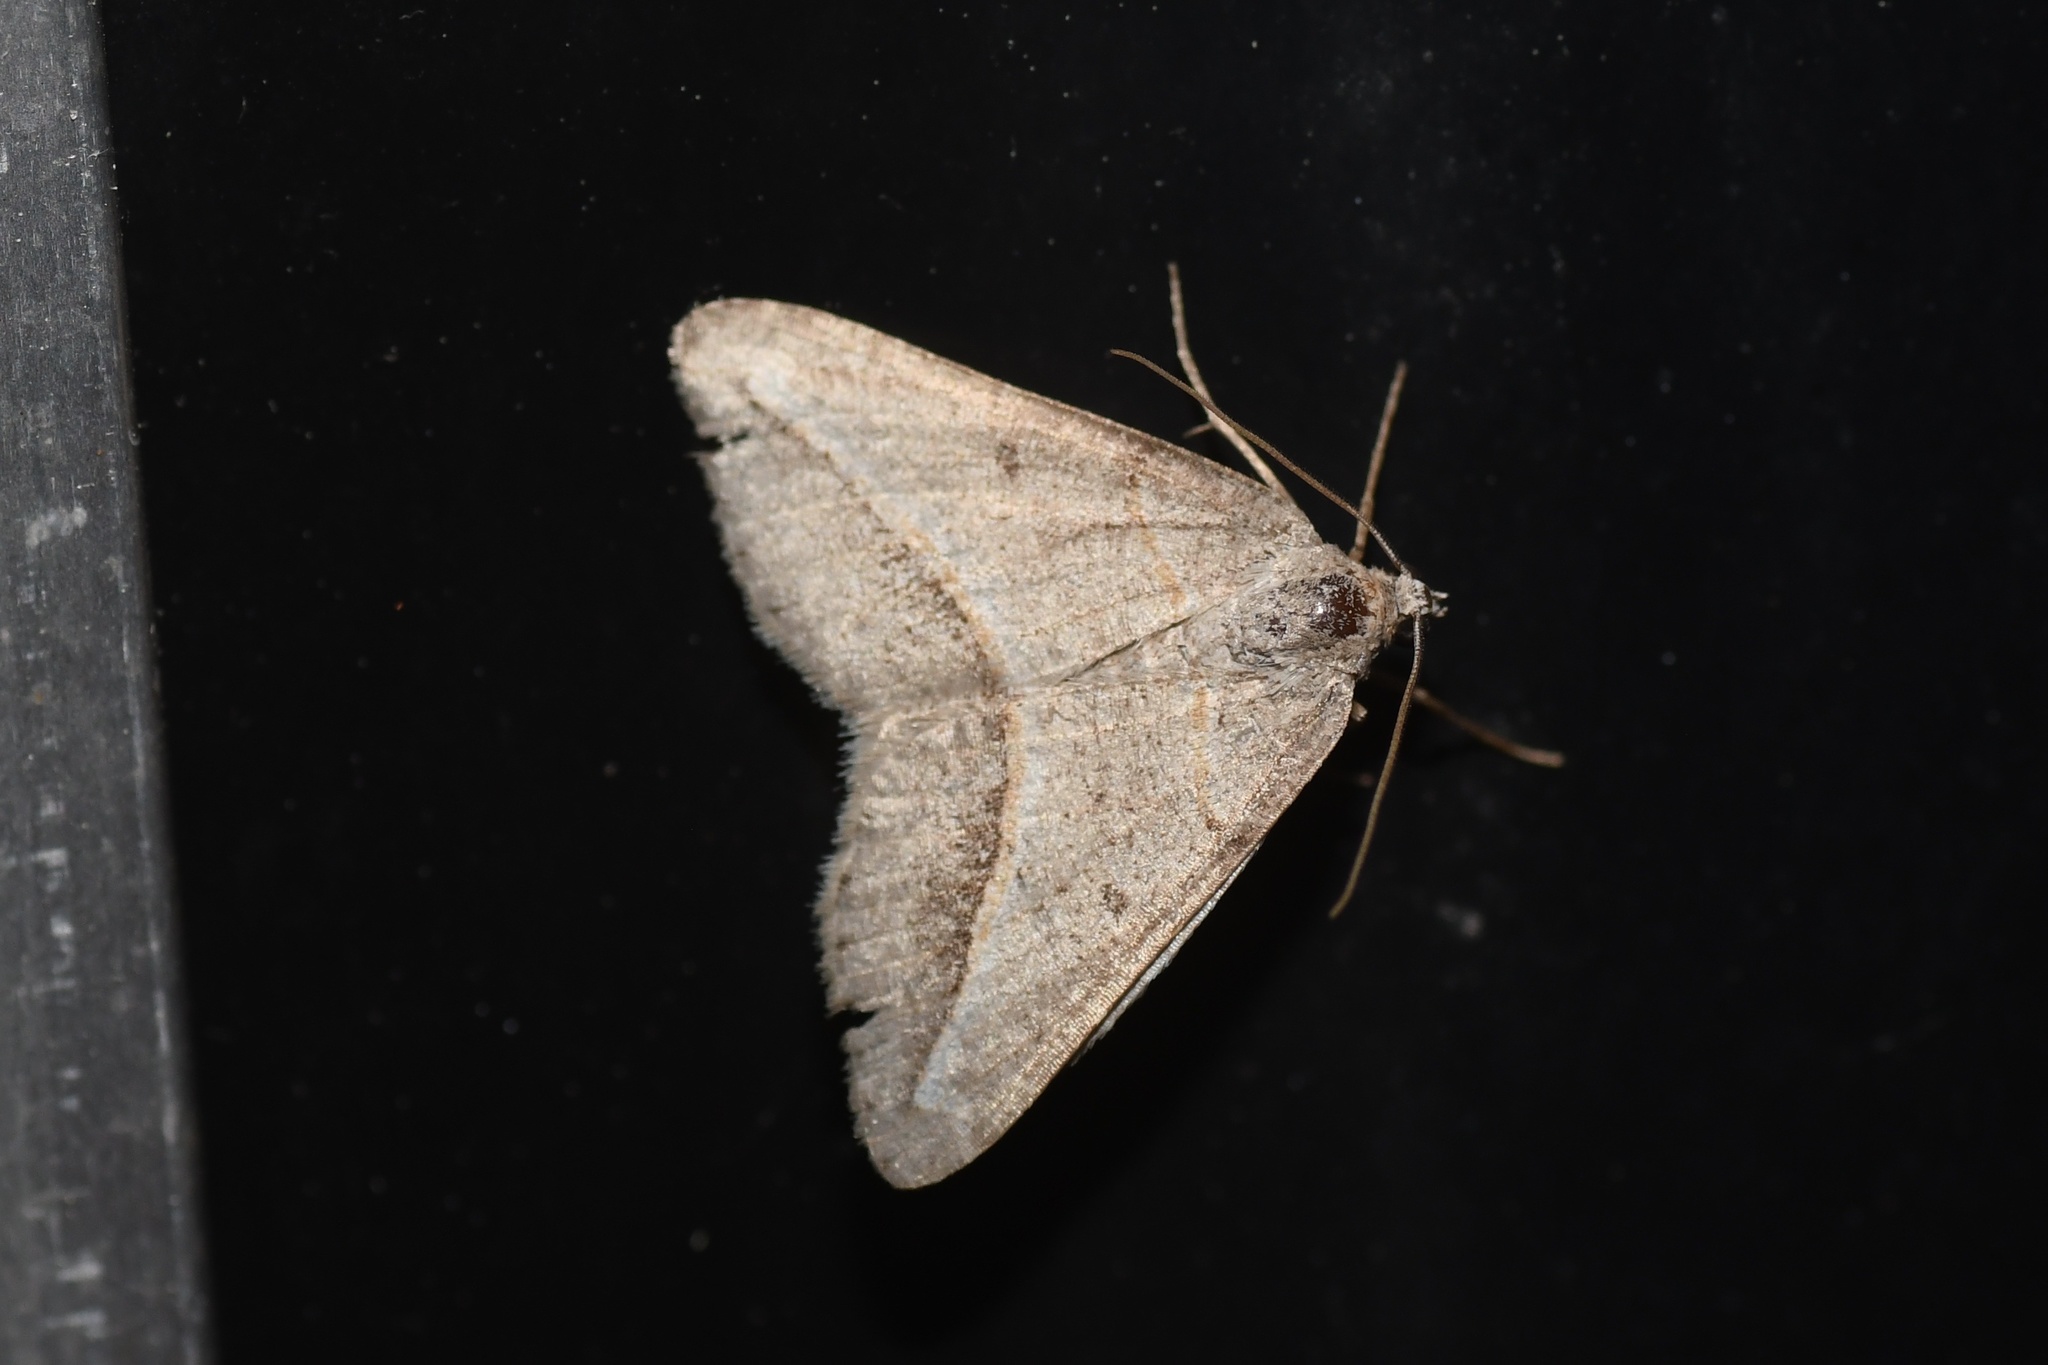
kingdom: Animalia
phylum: Arthropoda
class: Insecta
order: Lepidoptera
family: Geometridae
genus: Digrammia
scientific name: Digrammia mellistrigata
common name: Yellow-lined angle
